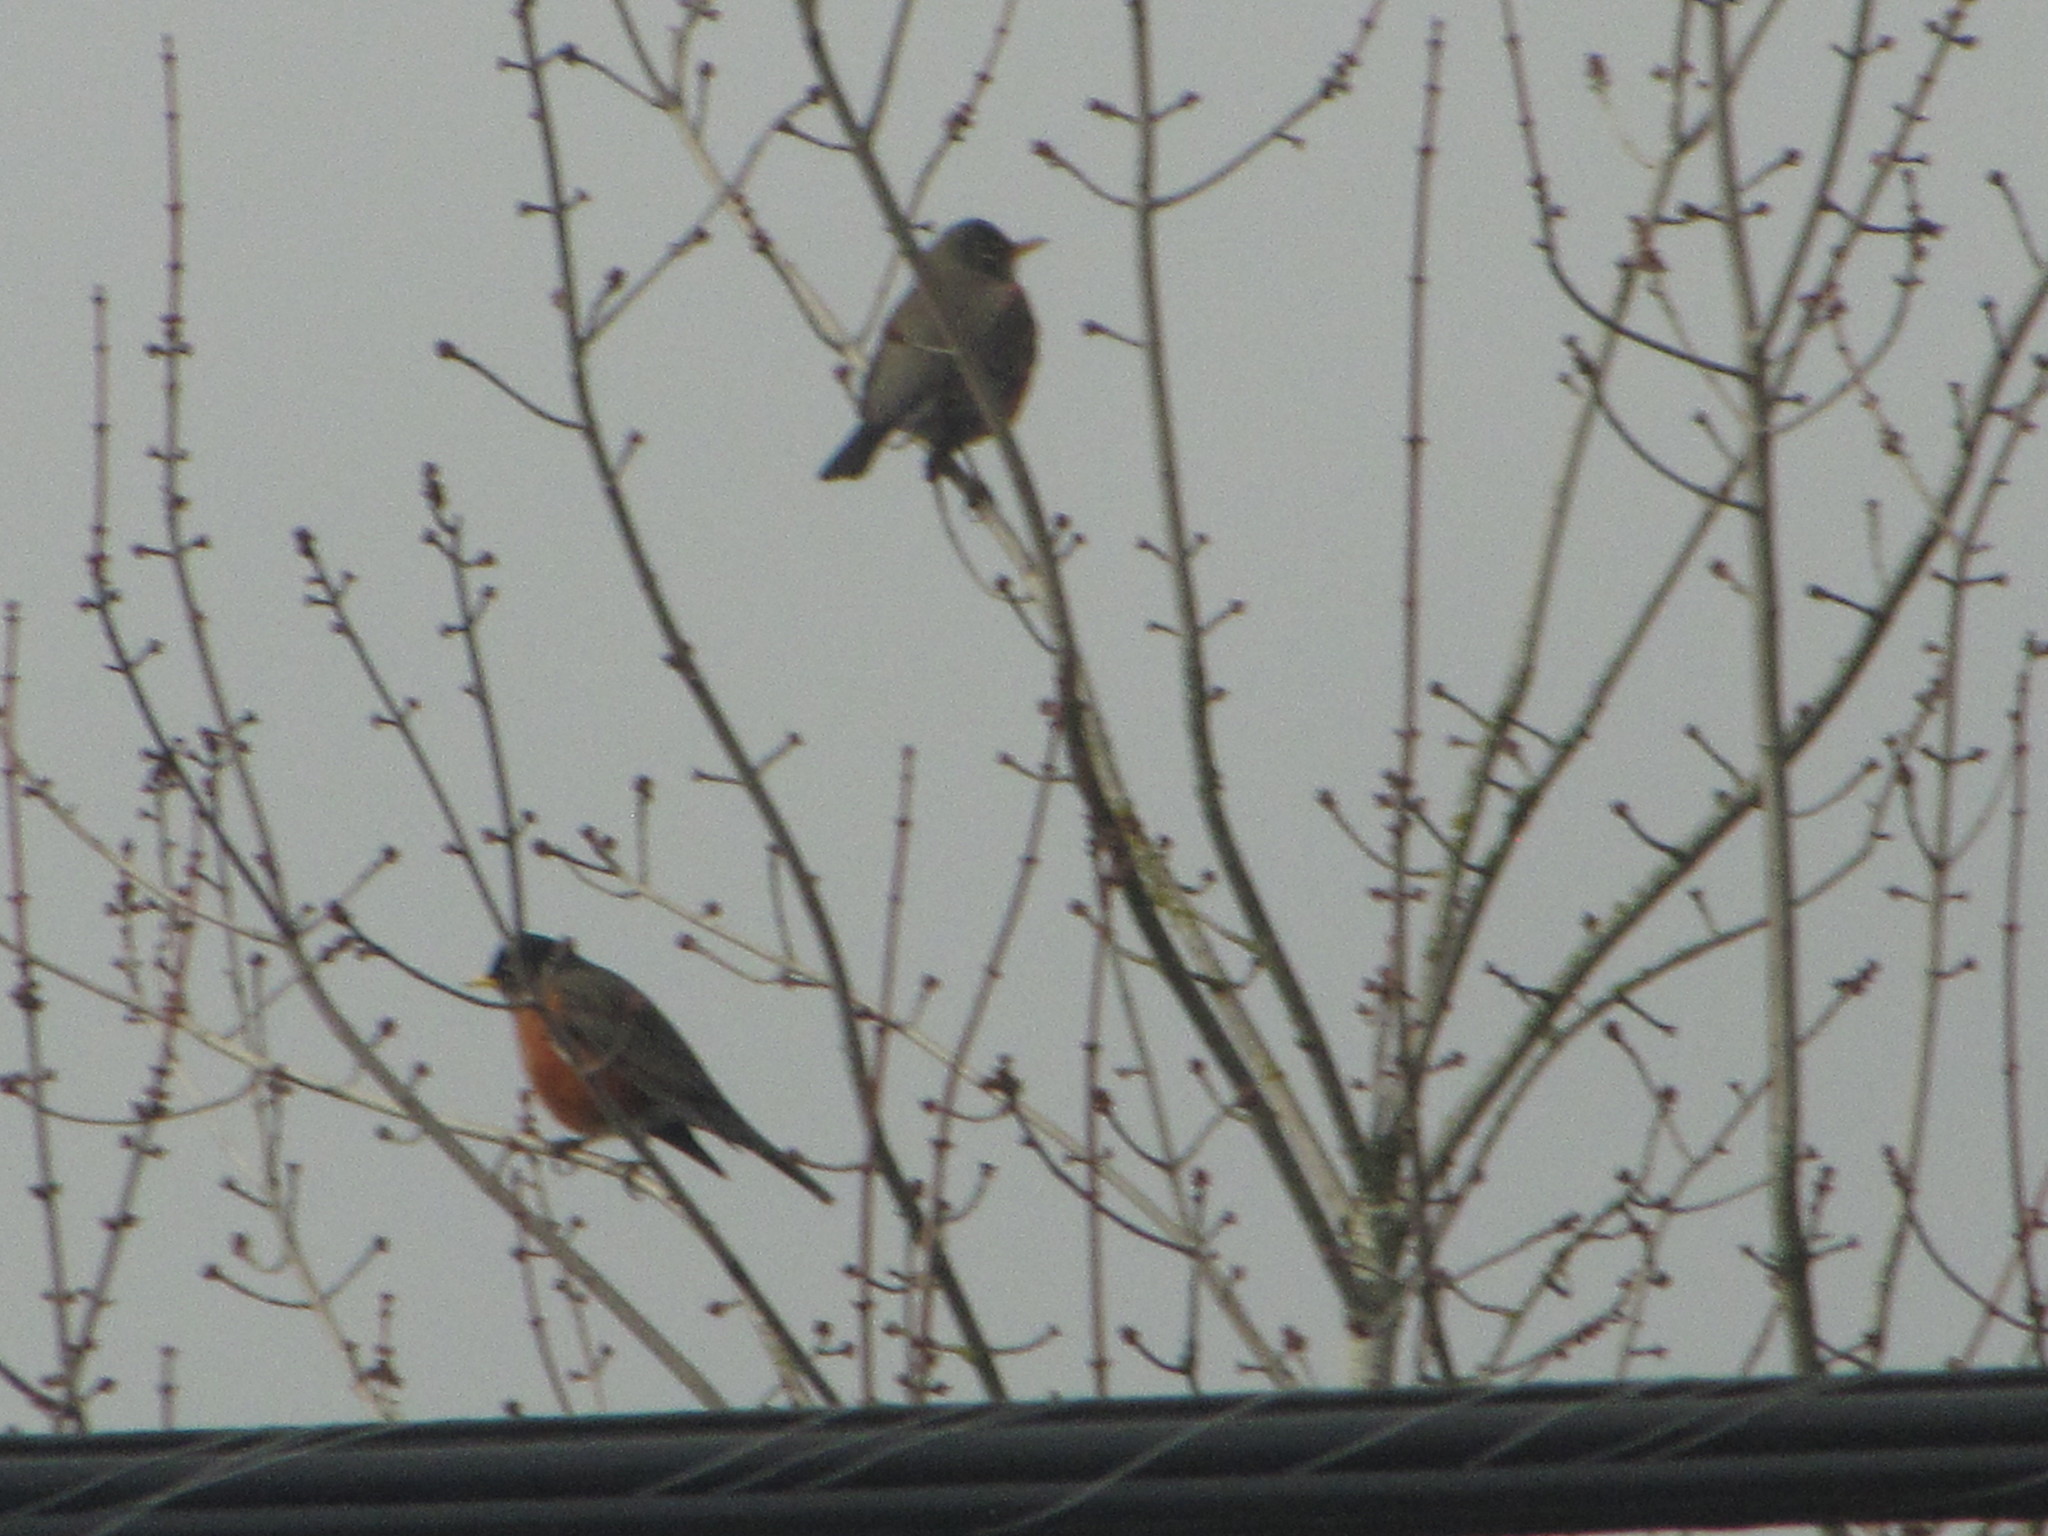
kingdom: Animalia
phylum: Chordata
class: Aves
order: Passeriformes
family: Turdidae
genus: Turdus
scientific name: Turdus migratorius
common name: American robin
